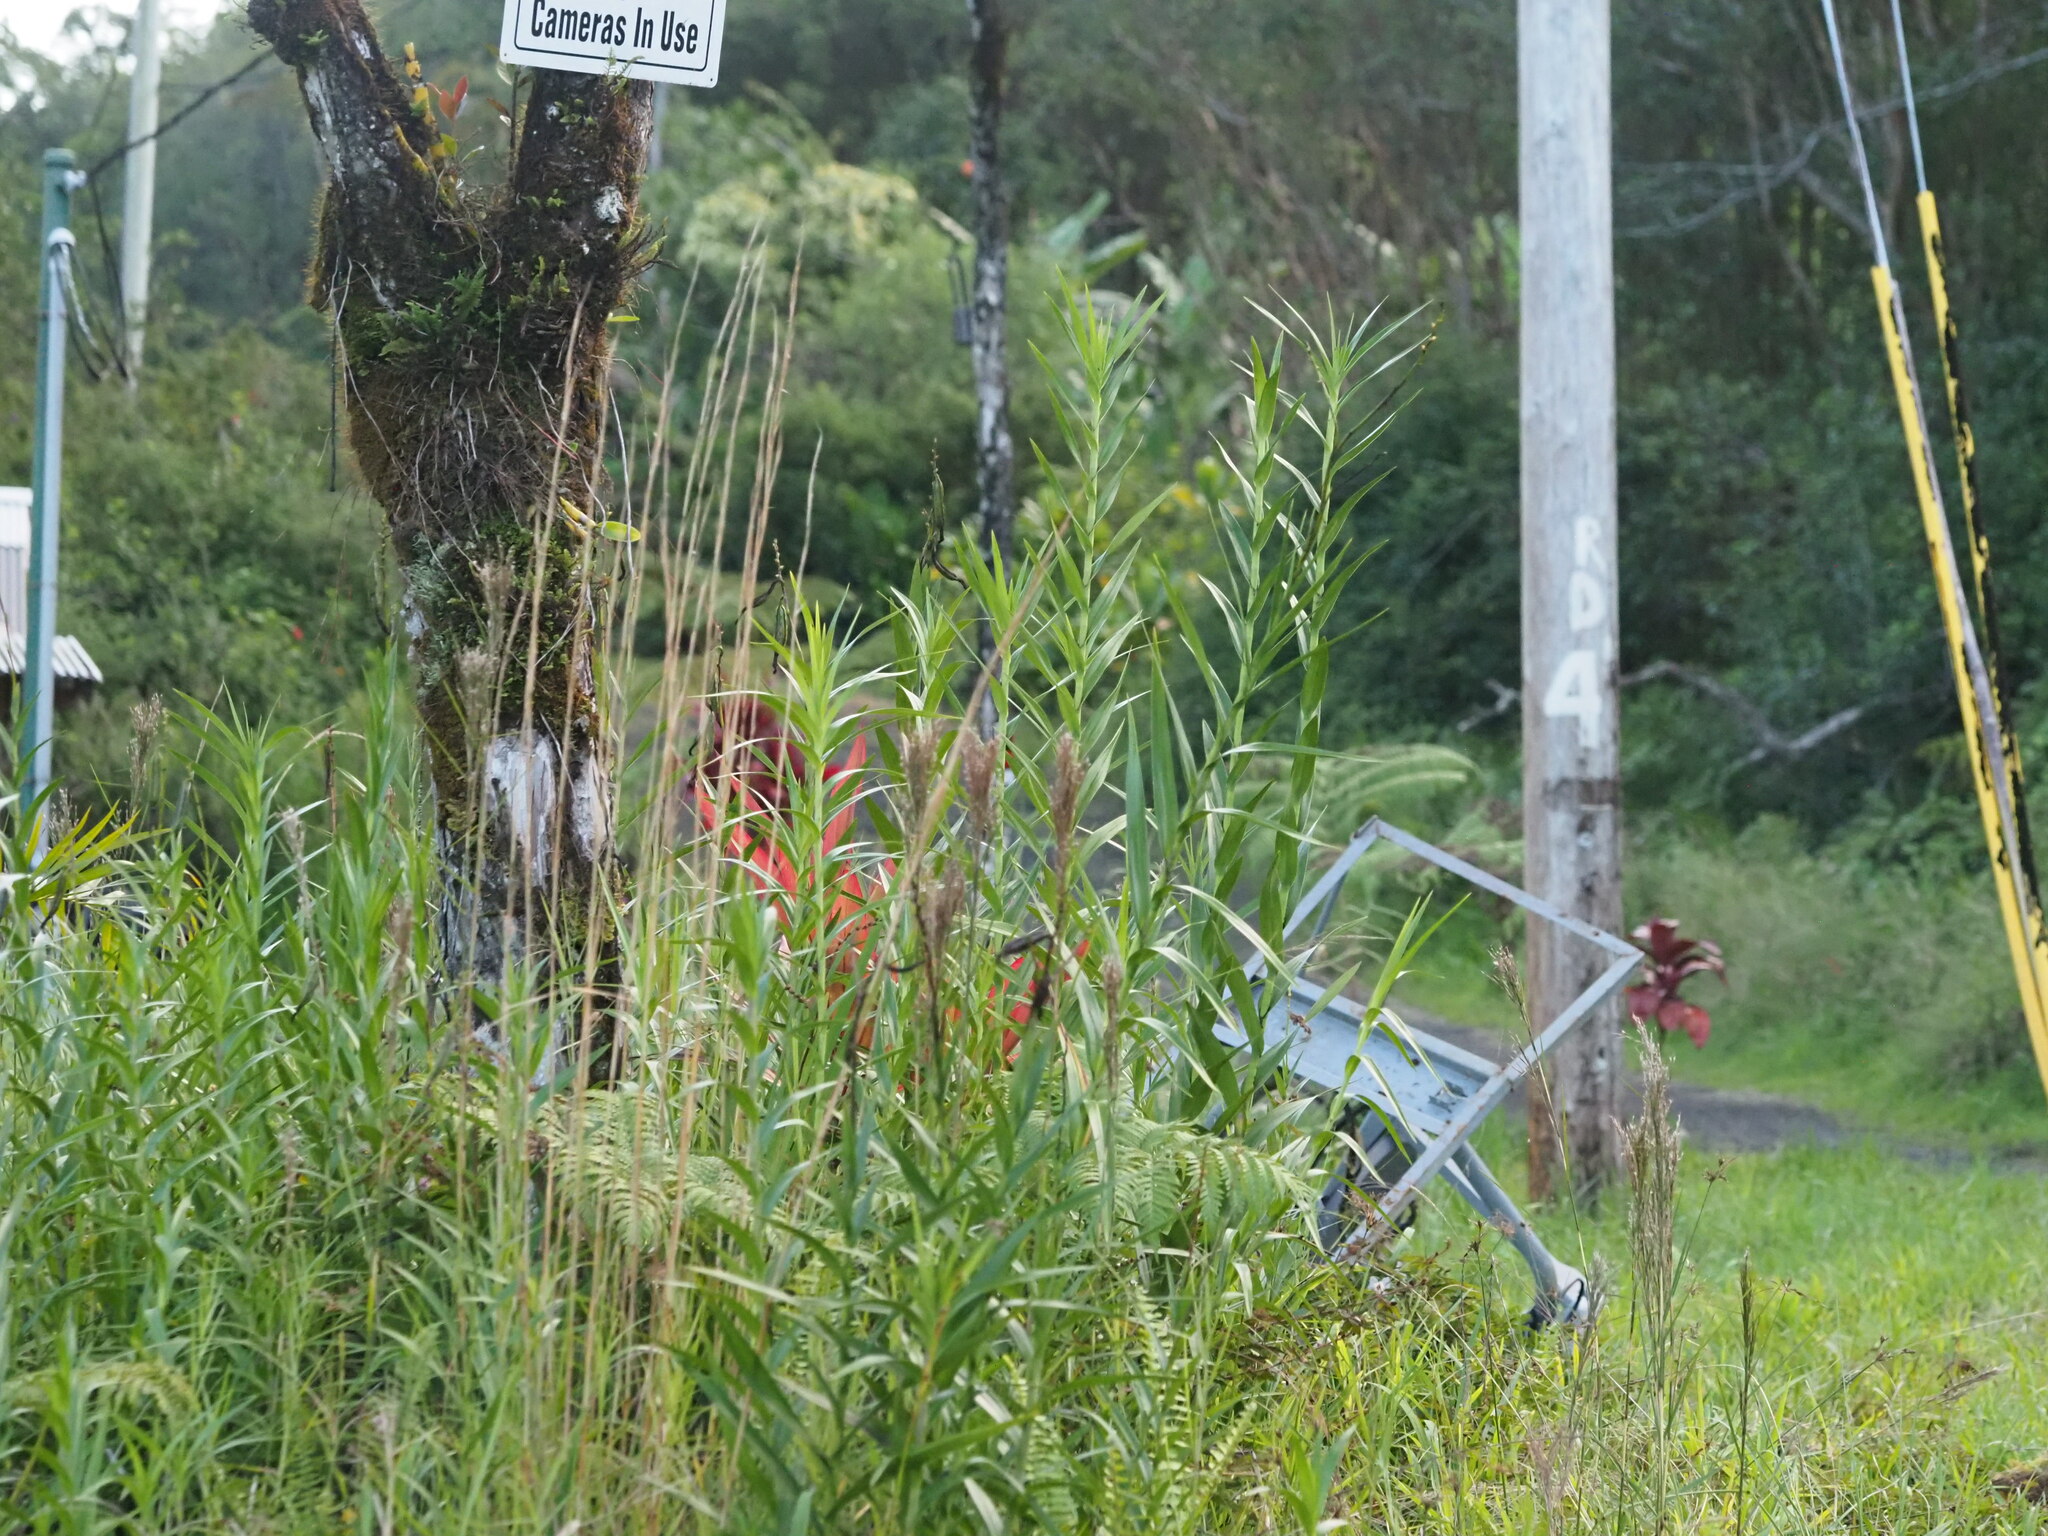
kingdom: Plantae
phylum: Tracheophyta
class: Liliopsida
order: Asparagales
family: Orchidaceae
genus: Arundina
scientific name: Arundina graminifolia
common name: Bamboo orchid
